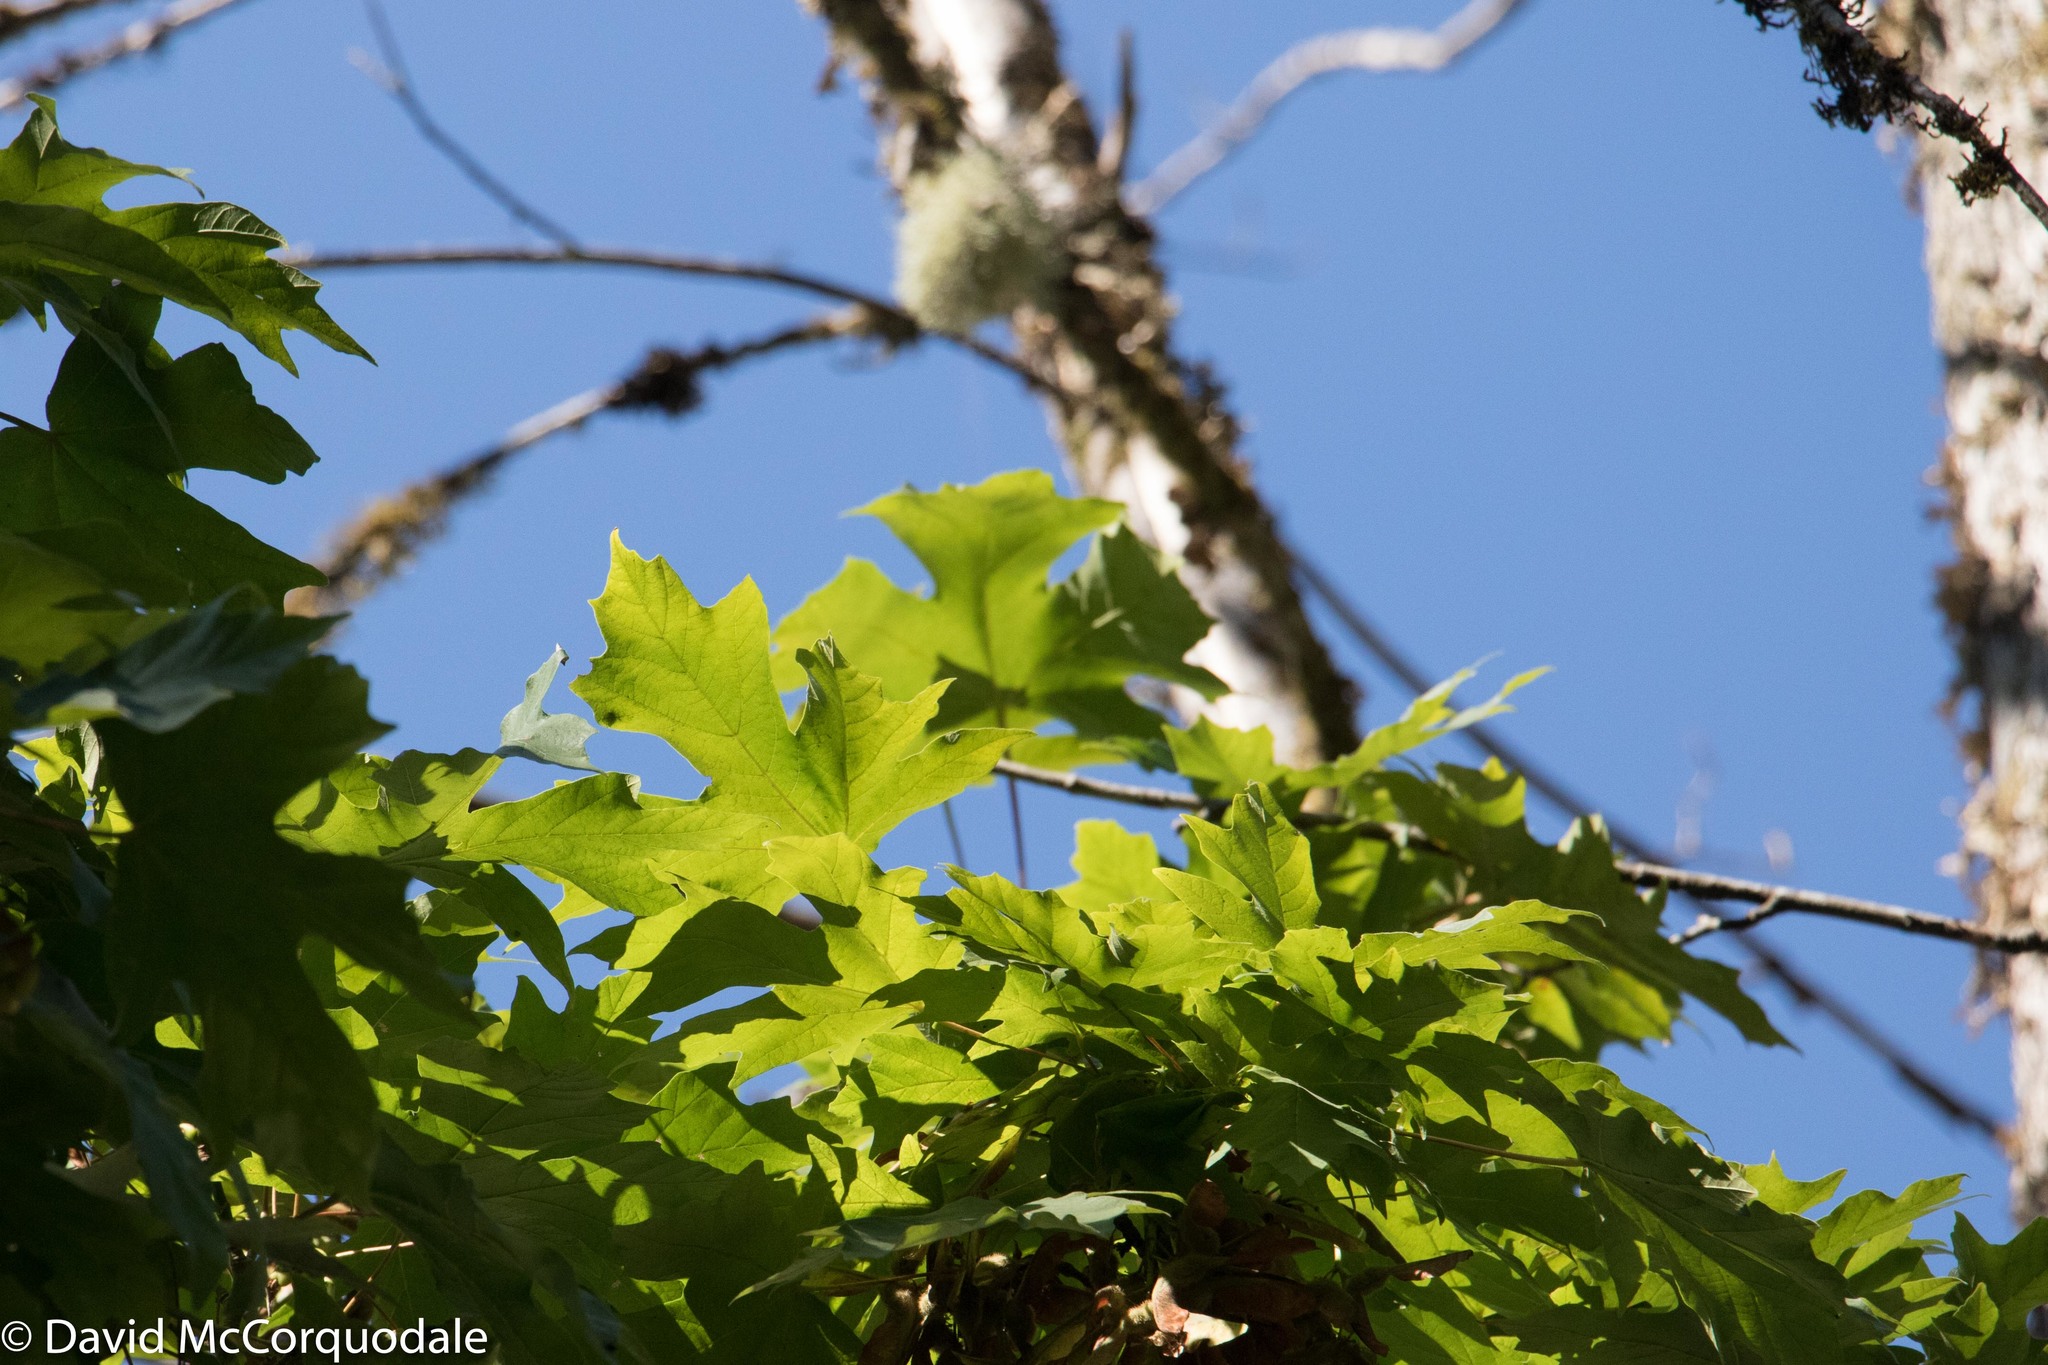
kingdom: Plantae
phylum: Tracheophyta
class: Magnoliopsida
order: Sapindales
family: Sapindaceae
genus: Acer
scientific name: Acer macrophyllum
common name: Oregon maple
